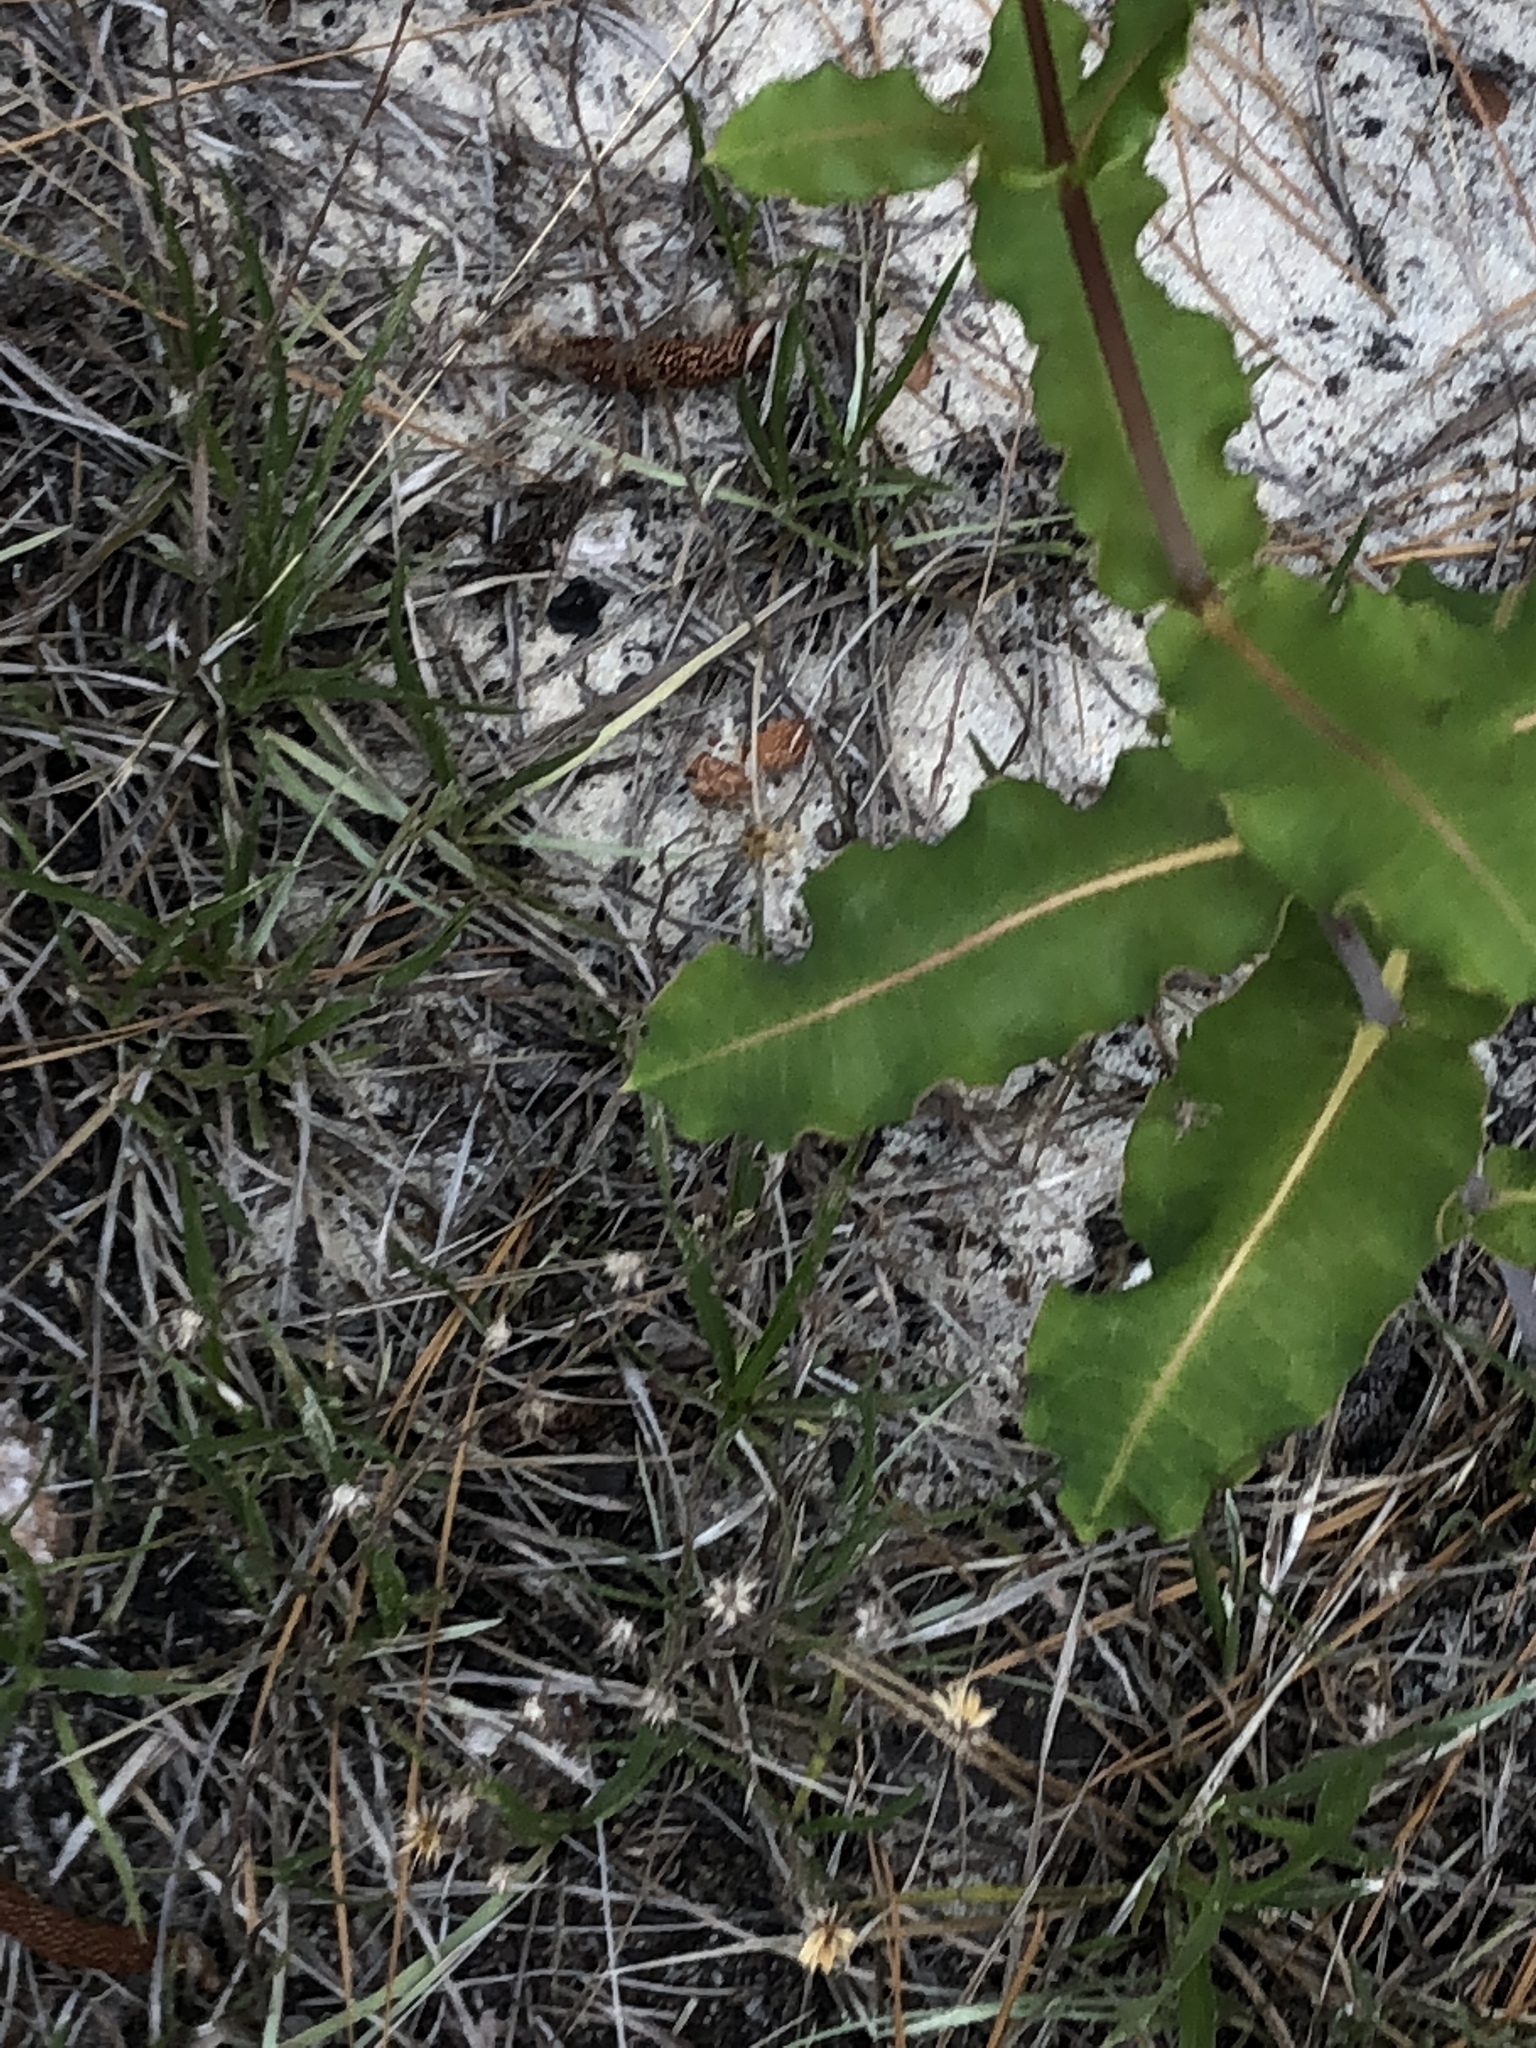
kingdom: Plantae
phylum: Tracheophyta
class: Magnoliopsida
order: Gentianales
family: Apocynaceae
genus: Asclepias
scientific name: Asclepias amplexicaulis
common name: Blunt-leaf milkweed
